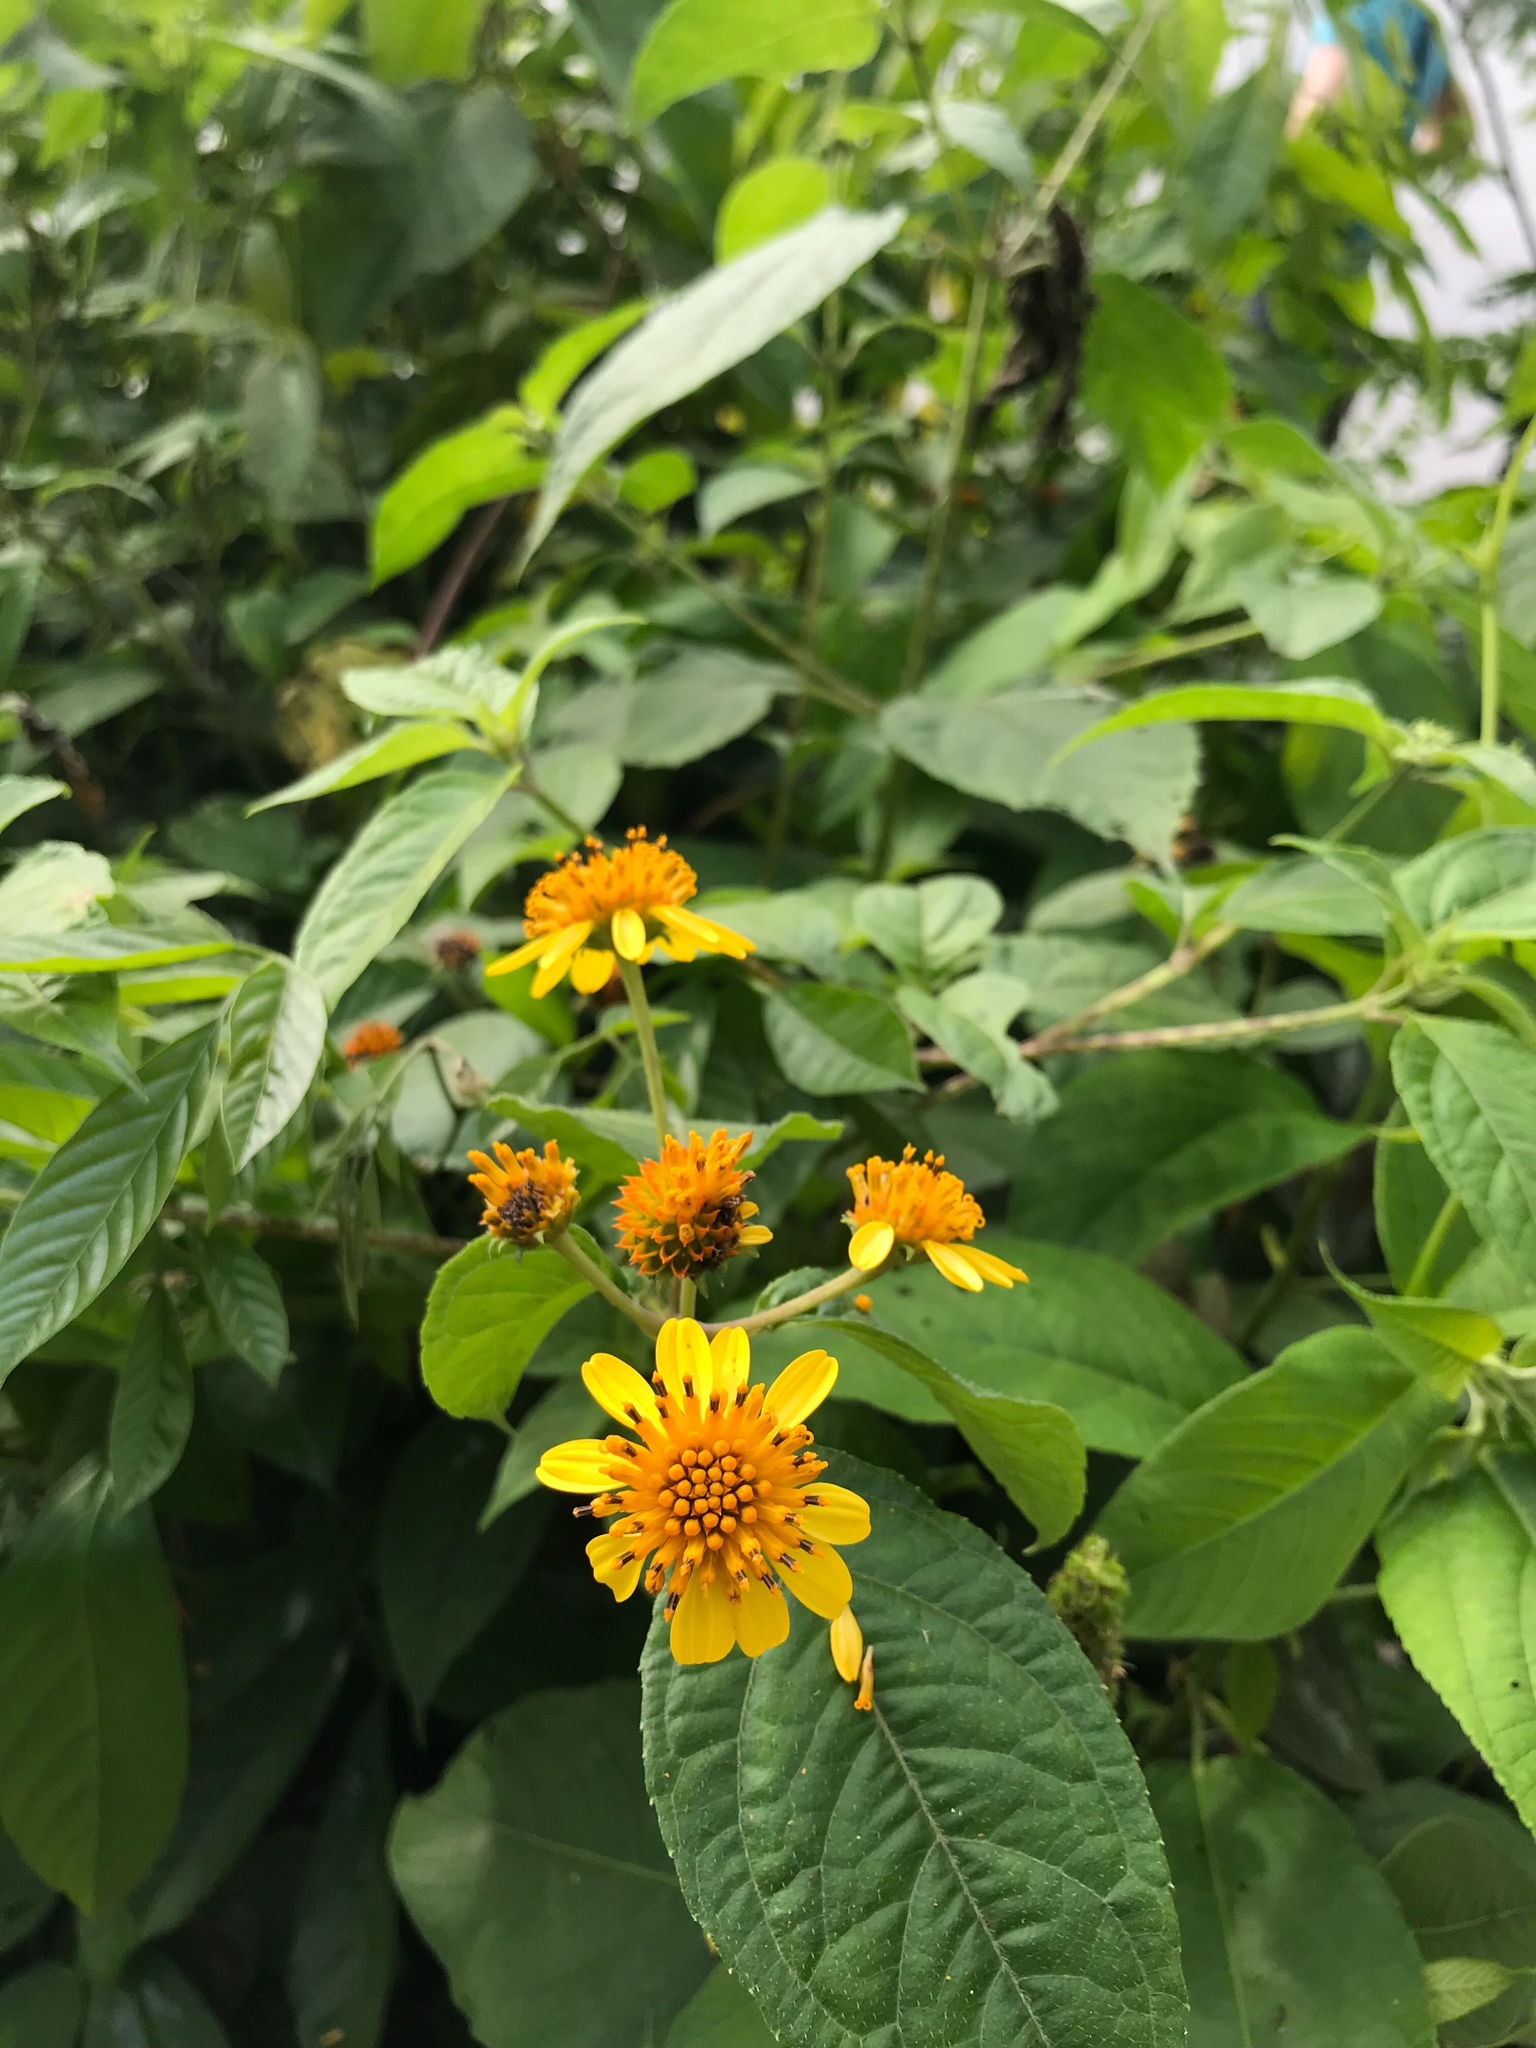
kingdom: Plantae
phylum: Tracheophyta
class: Magnoliopsida
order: Asterales
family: Asteraceae
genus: Tilesia
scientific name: Tilesia baccata
